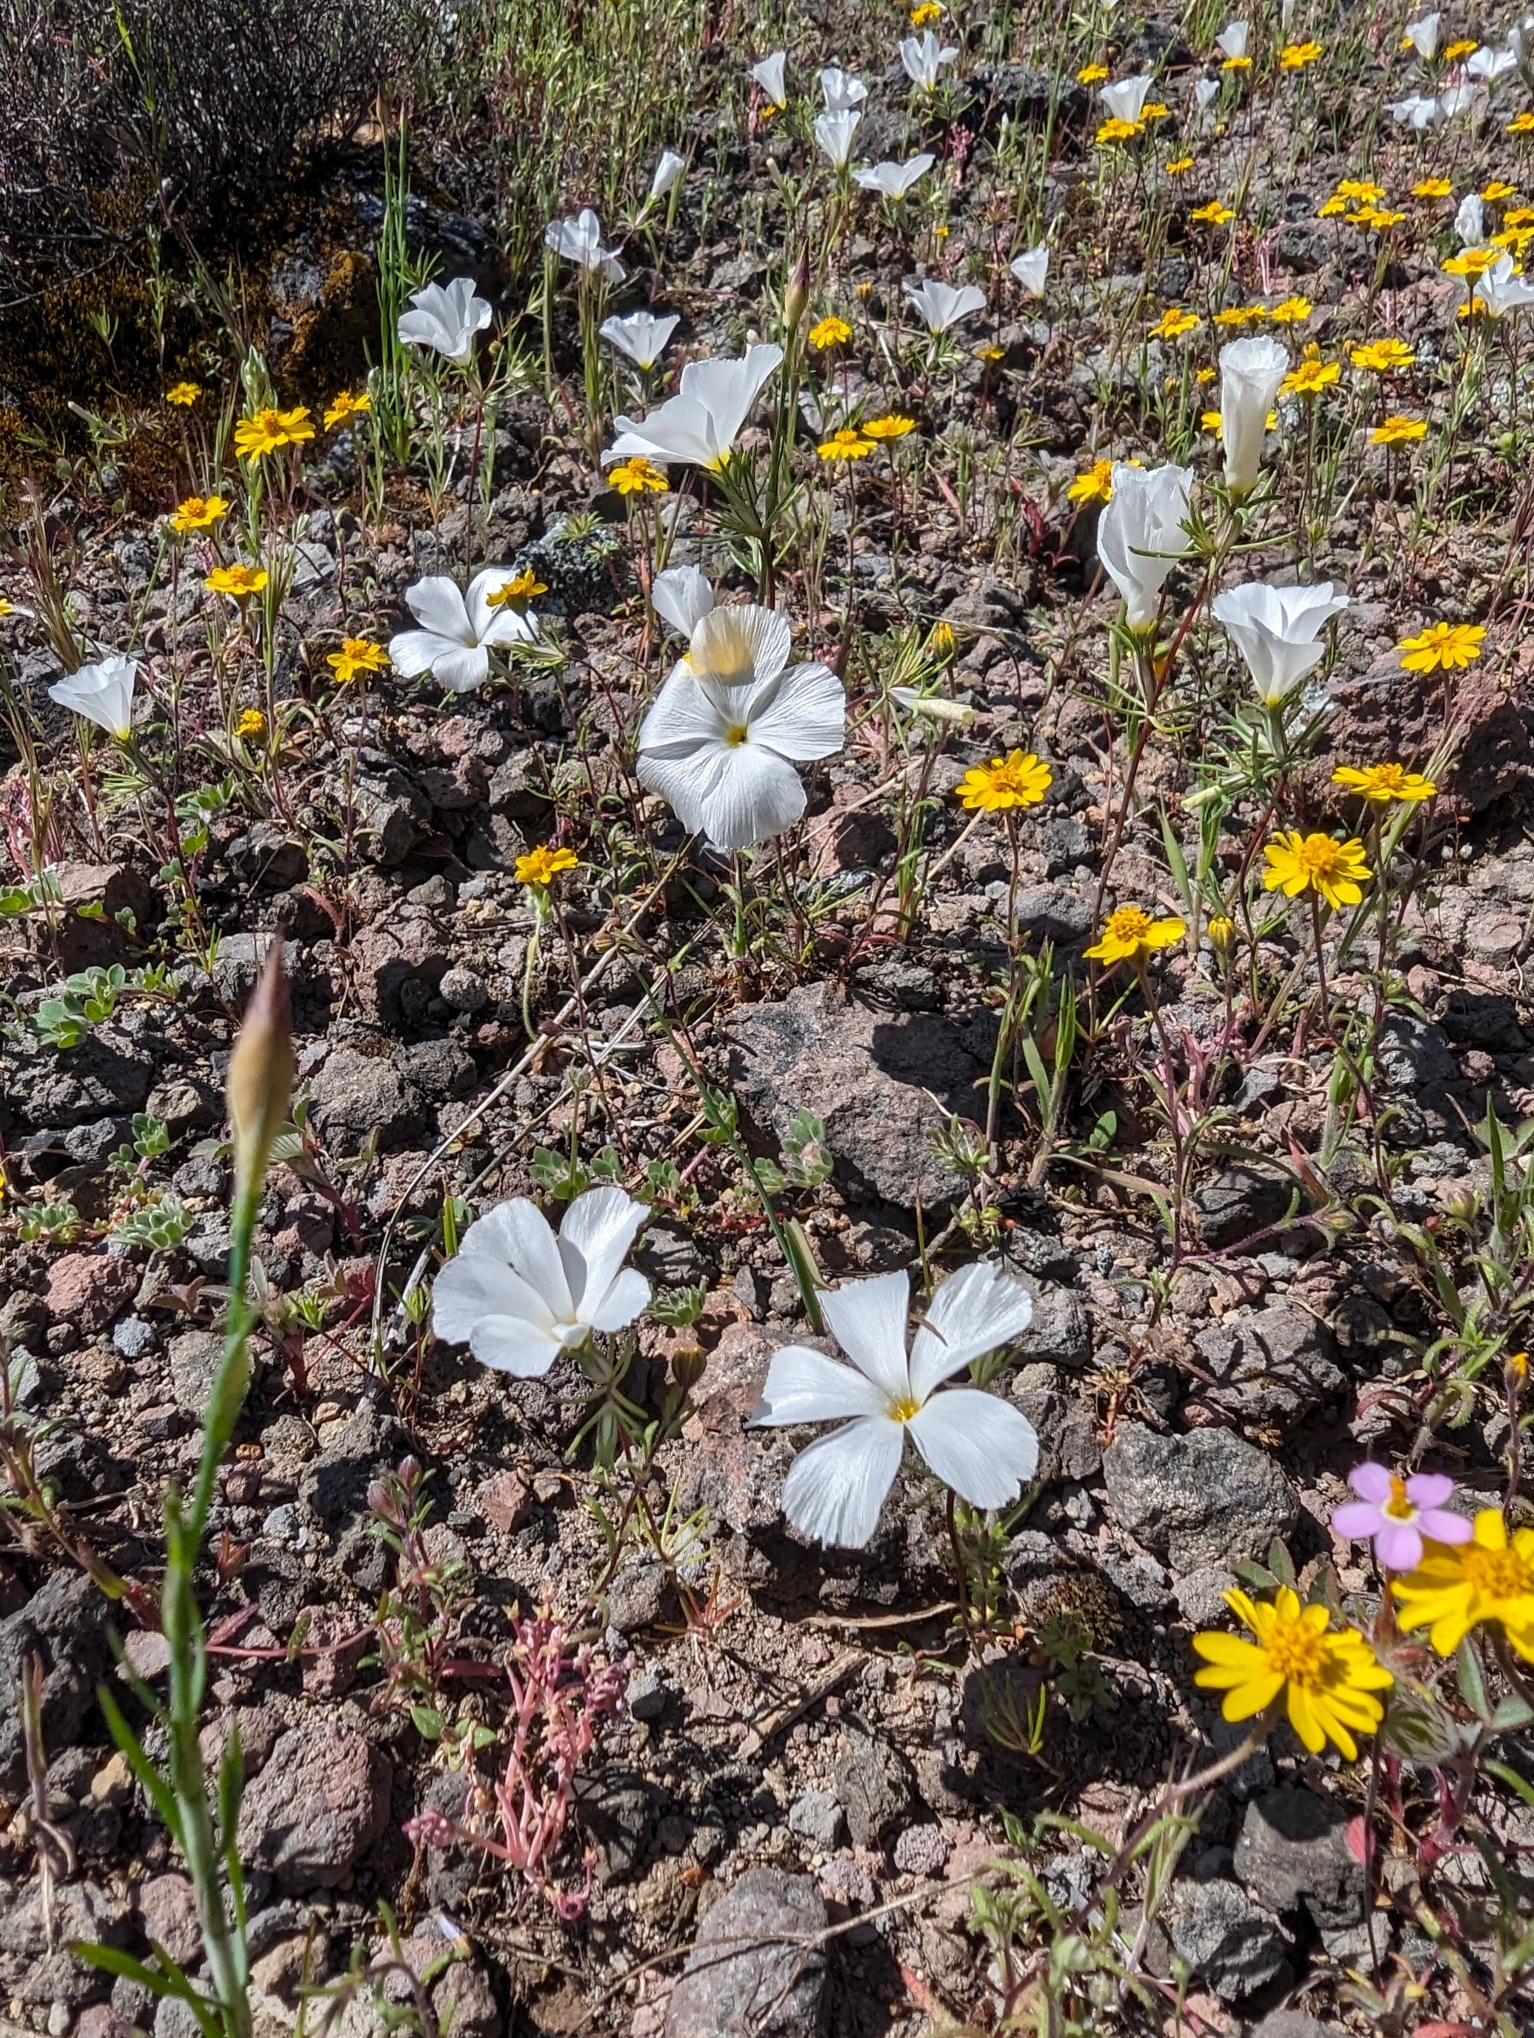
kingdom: Plantae
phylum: Tracheophyta
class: Magnoliopsida
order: Ericales
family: Polemoniaceae
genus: Linanthus
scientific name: Linanthus dichotomus
